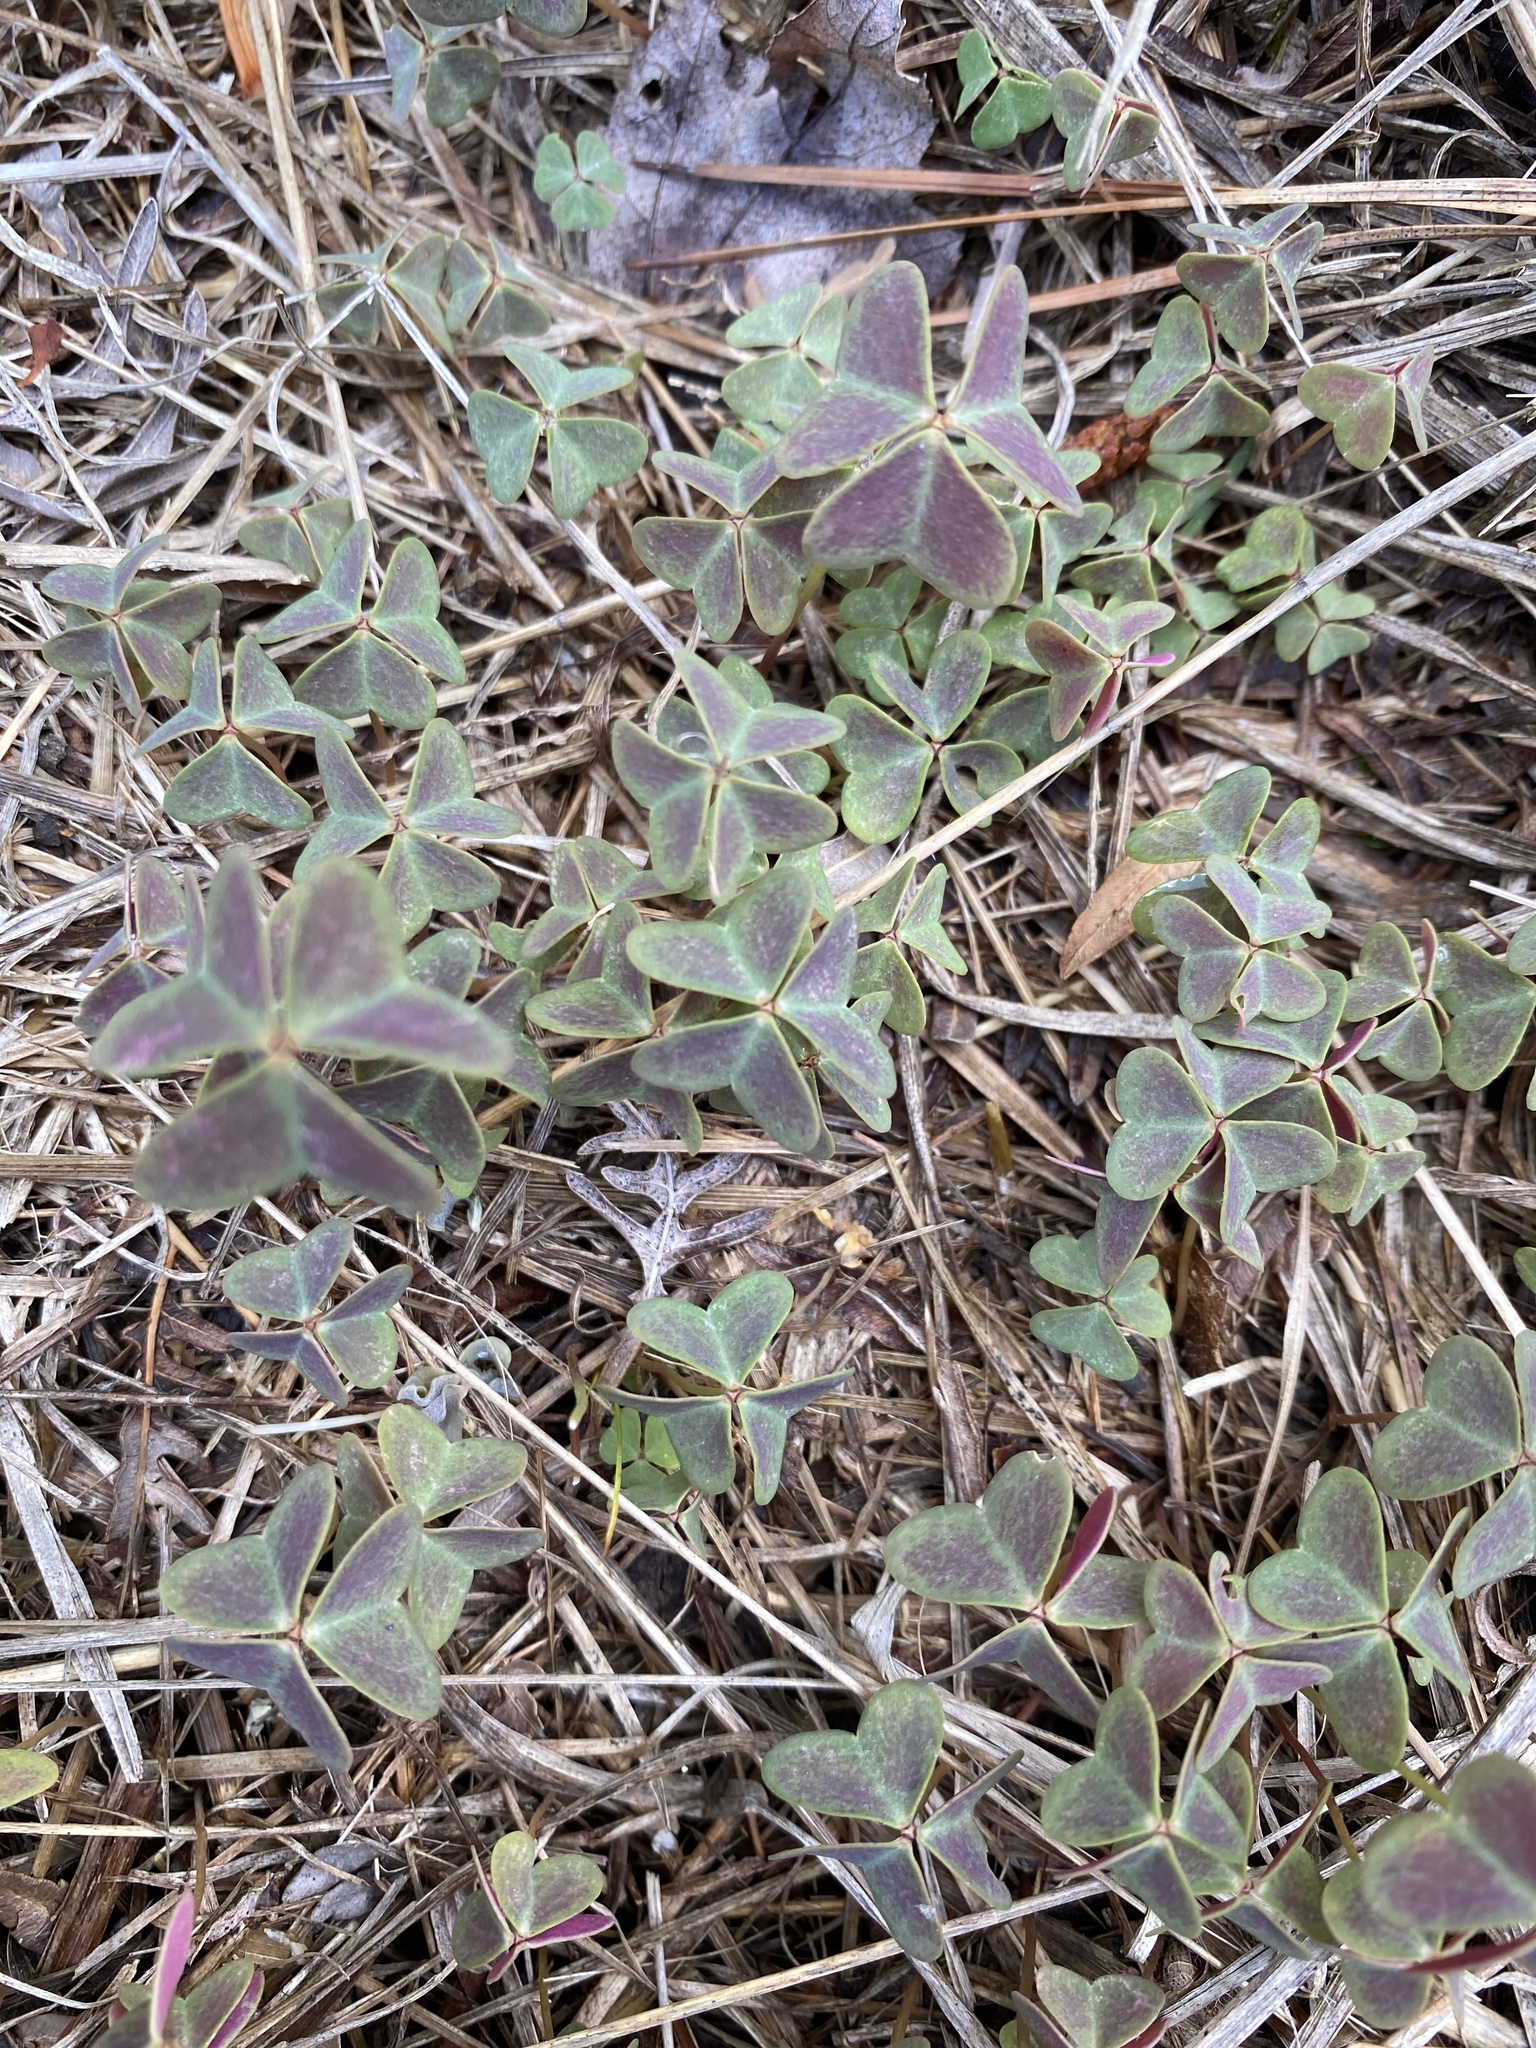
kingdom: Plantae
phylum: Tracheophyta
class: Magnoliopsida
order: Oxalidales
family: Oxalidaceae
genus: Oxalis
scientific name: Oxalis violacea
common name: Violet wood-sorrel
